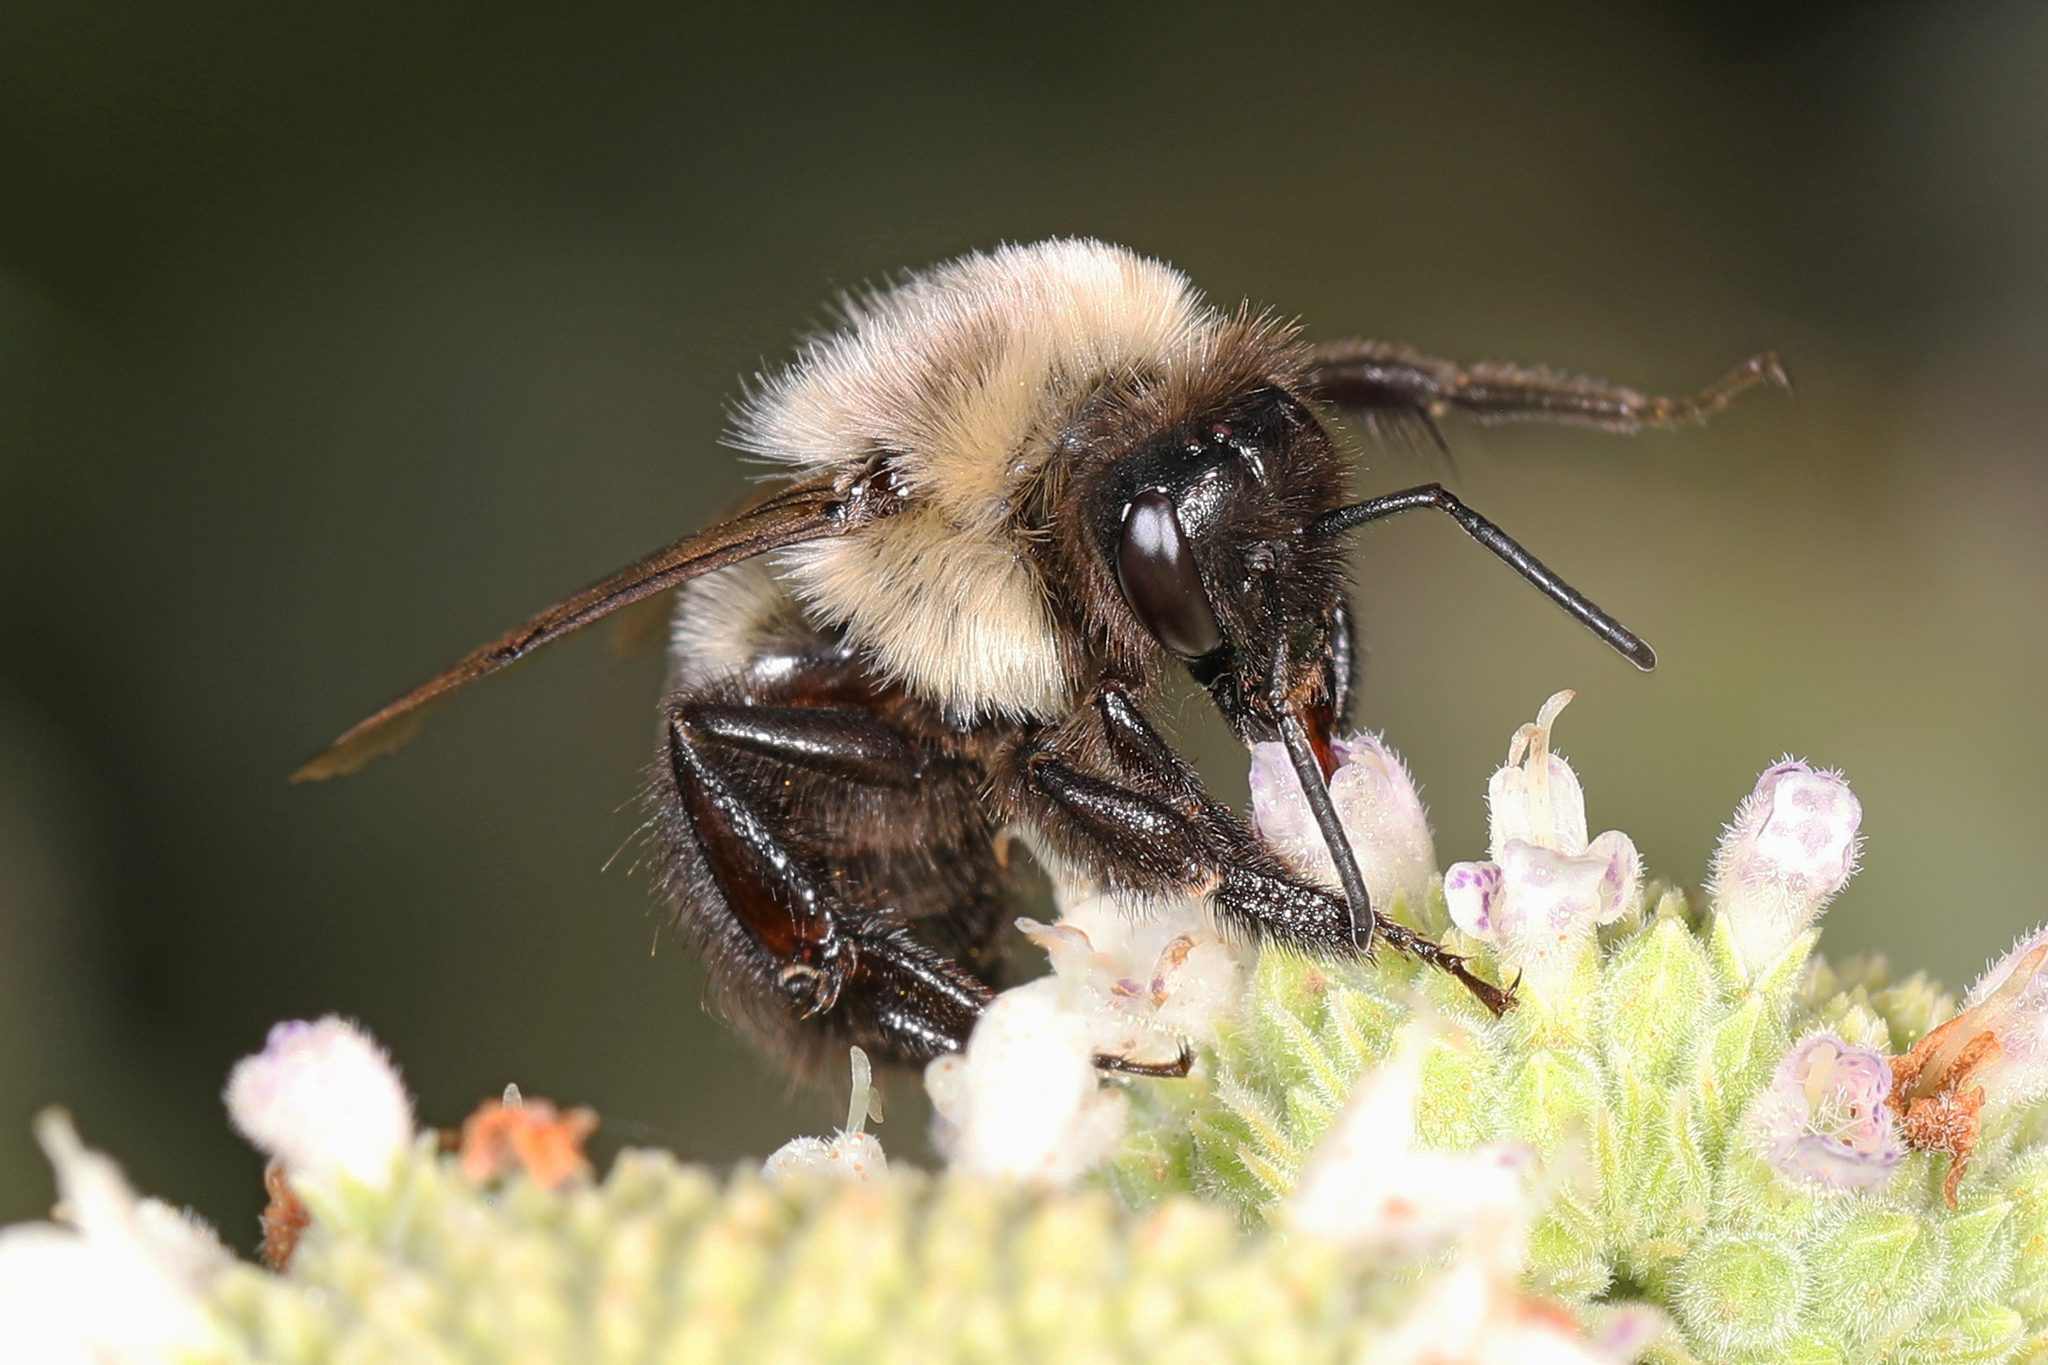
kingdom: Animalia
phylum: Arthropoda
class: Insecta
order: Hymenoptera
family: Apidae
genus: Bombus
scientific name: Bombus impatiens
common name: Common eastern bumble bee
